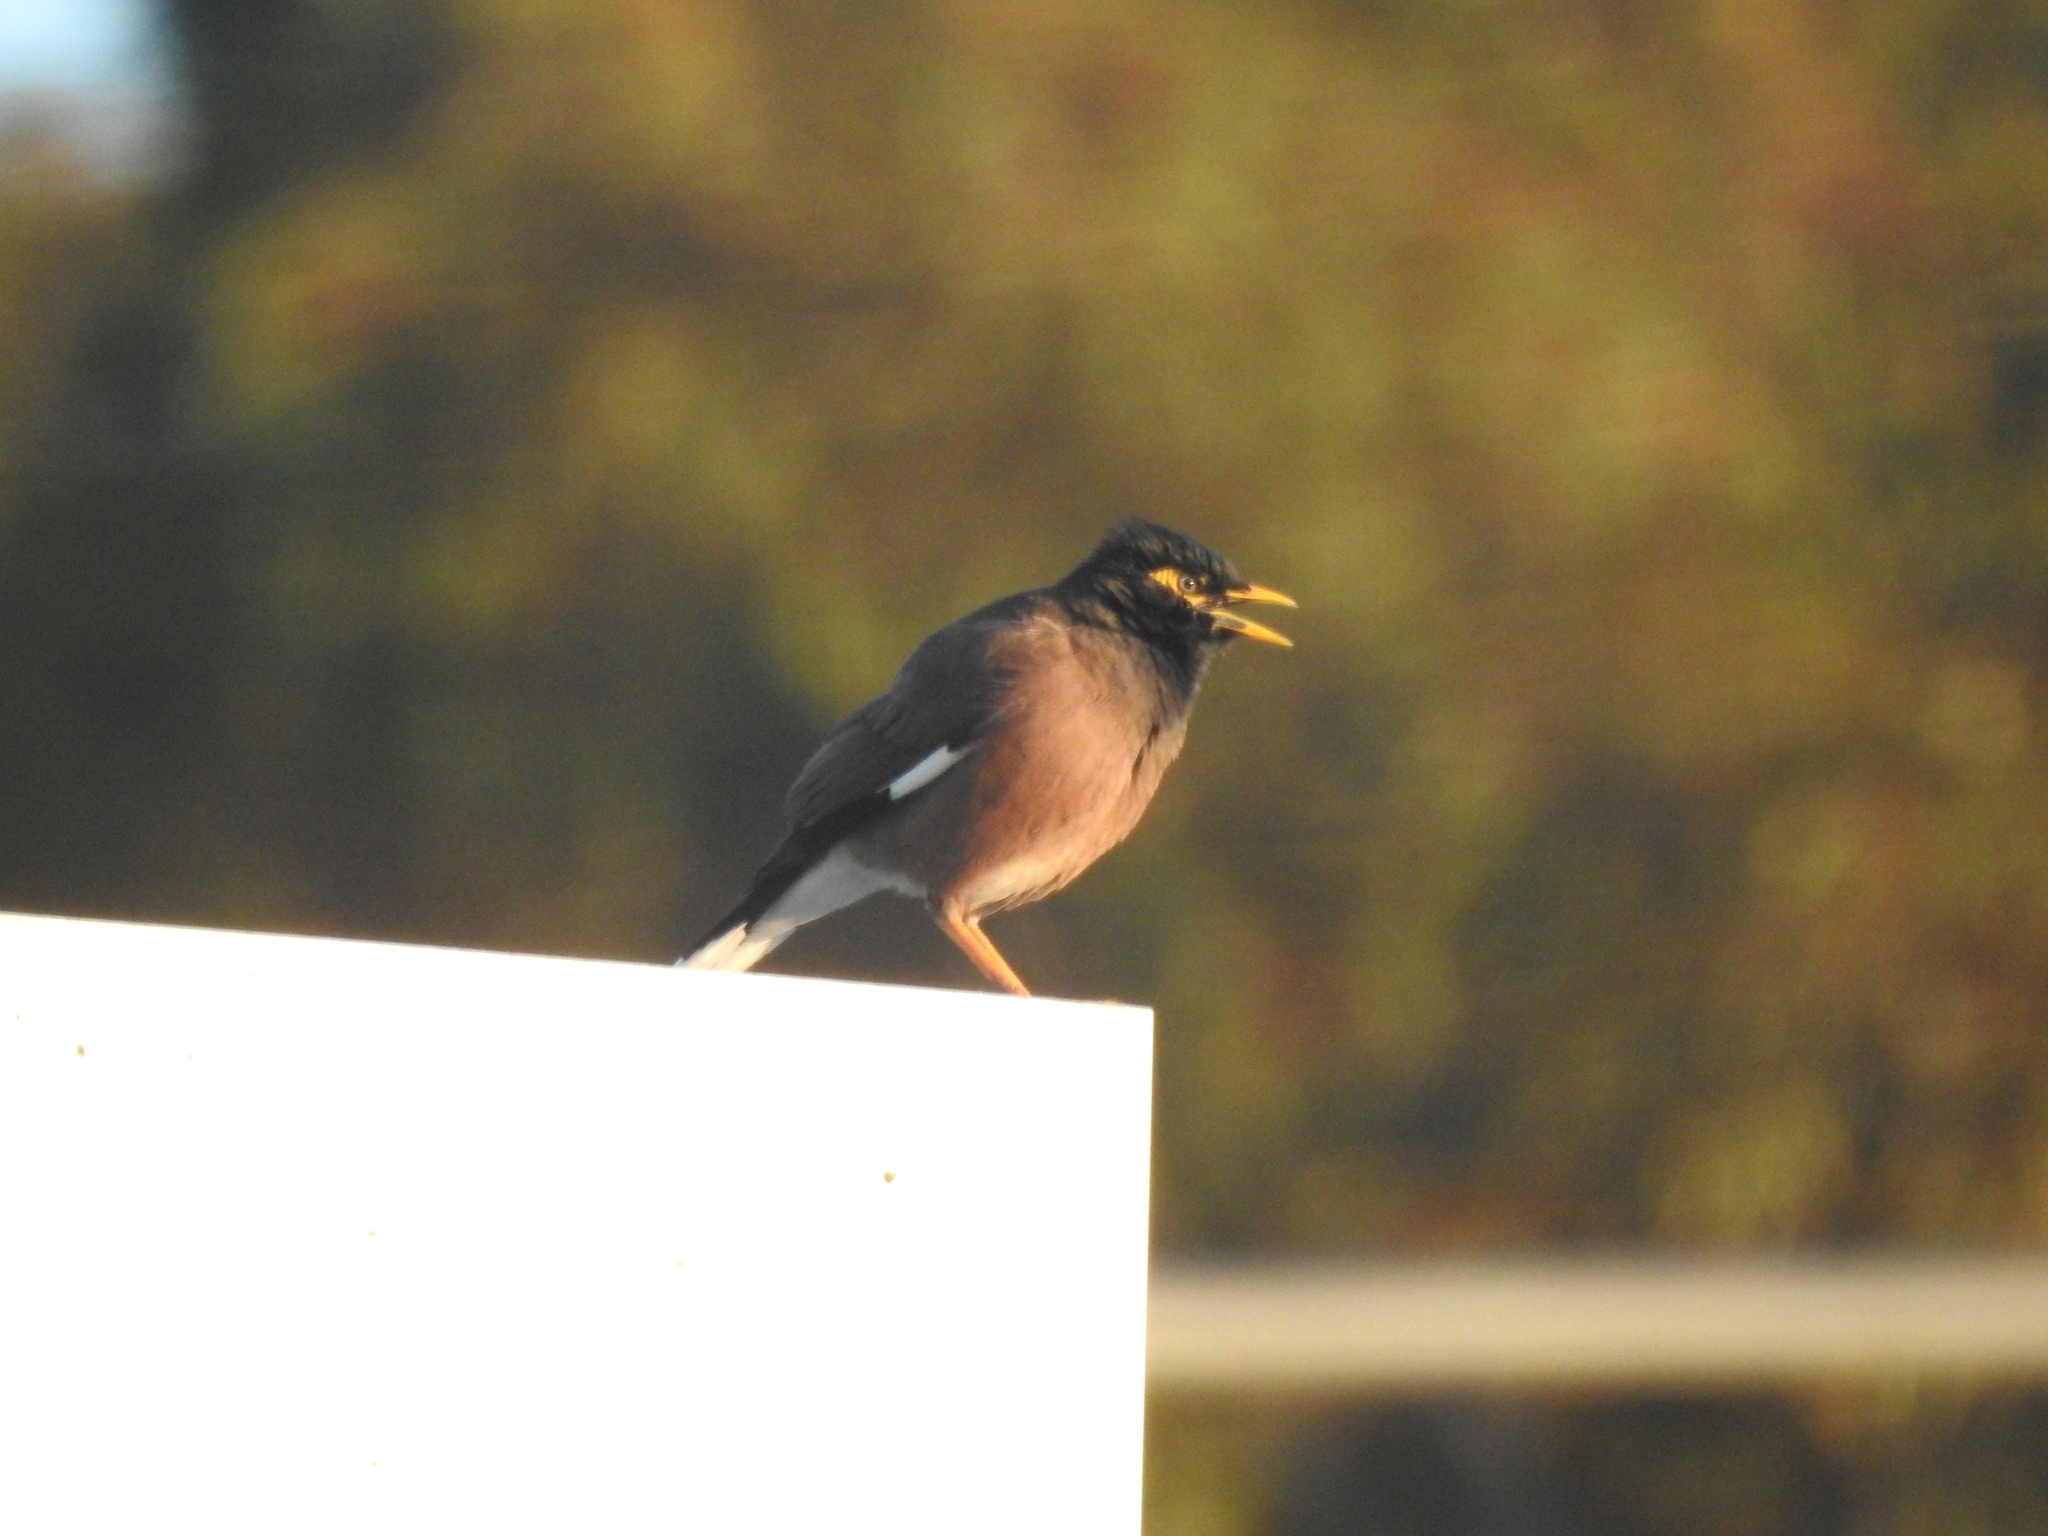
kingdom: Animalia
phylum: Chordata
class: Aves
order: Passeriformes
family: Sturnidae
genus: Acridotheres
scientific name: Acridotheres tristis
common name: Common myna
